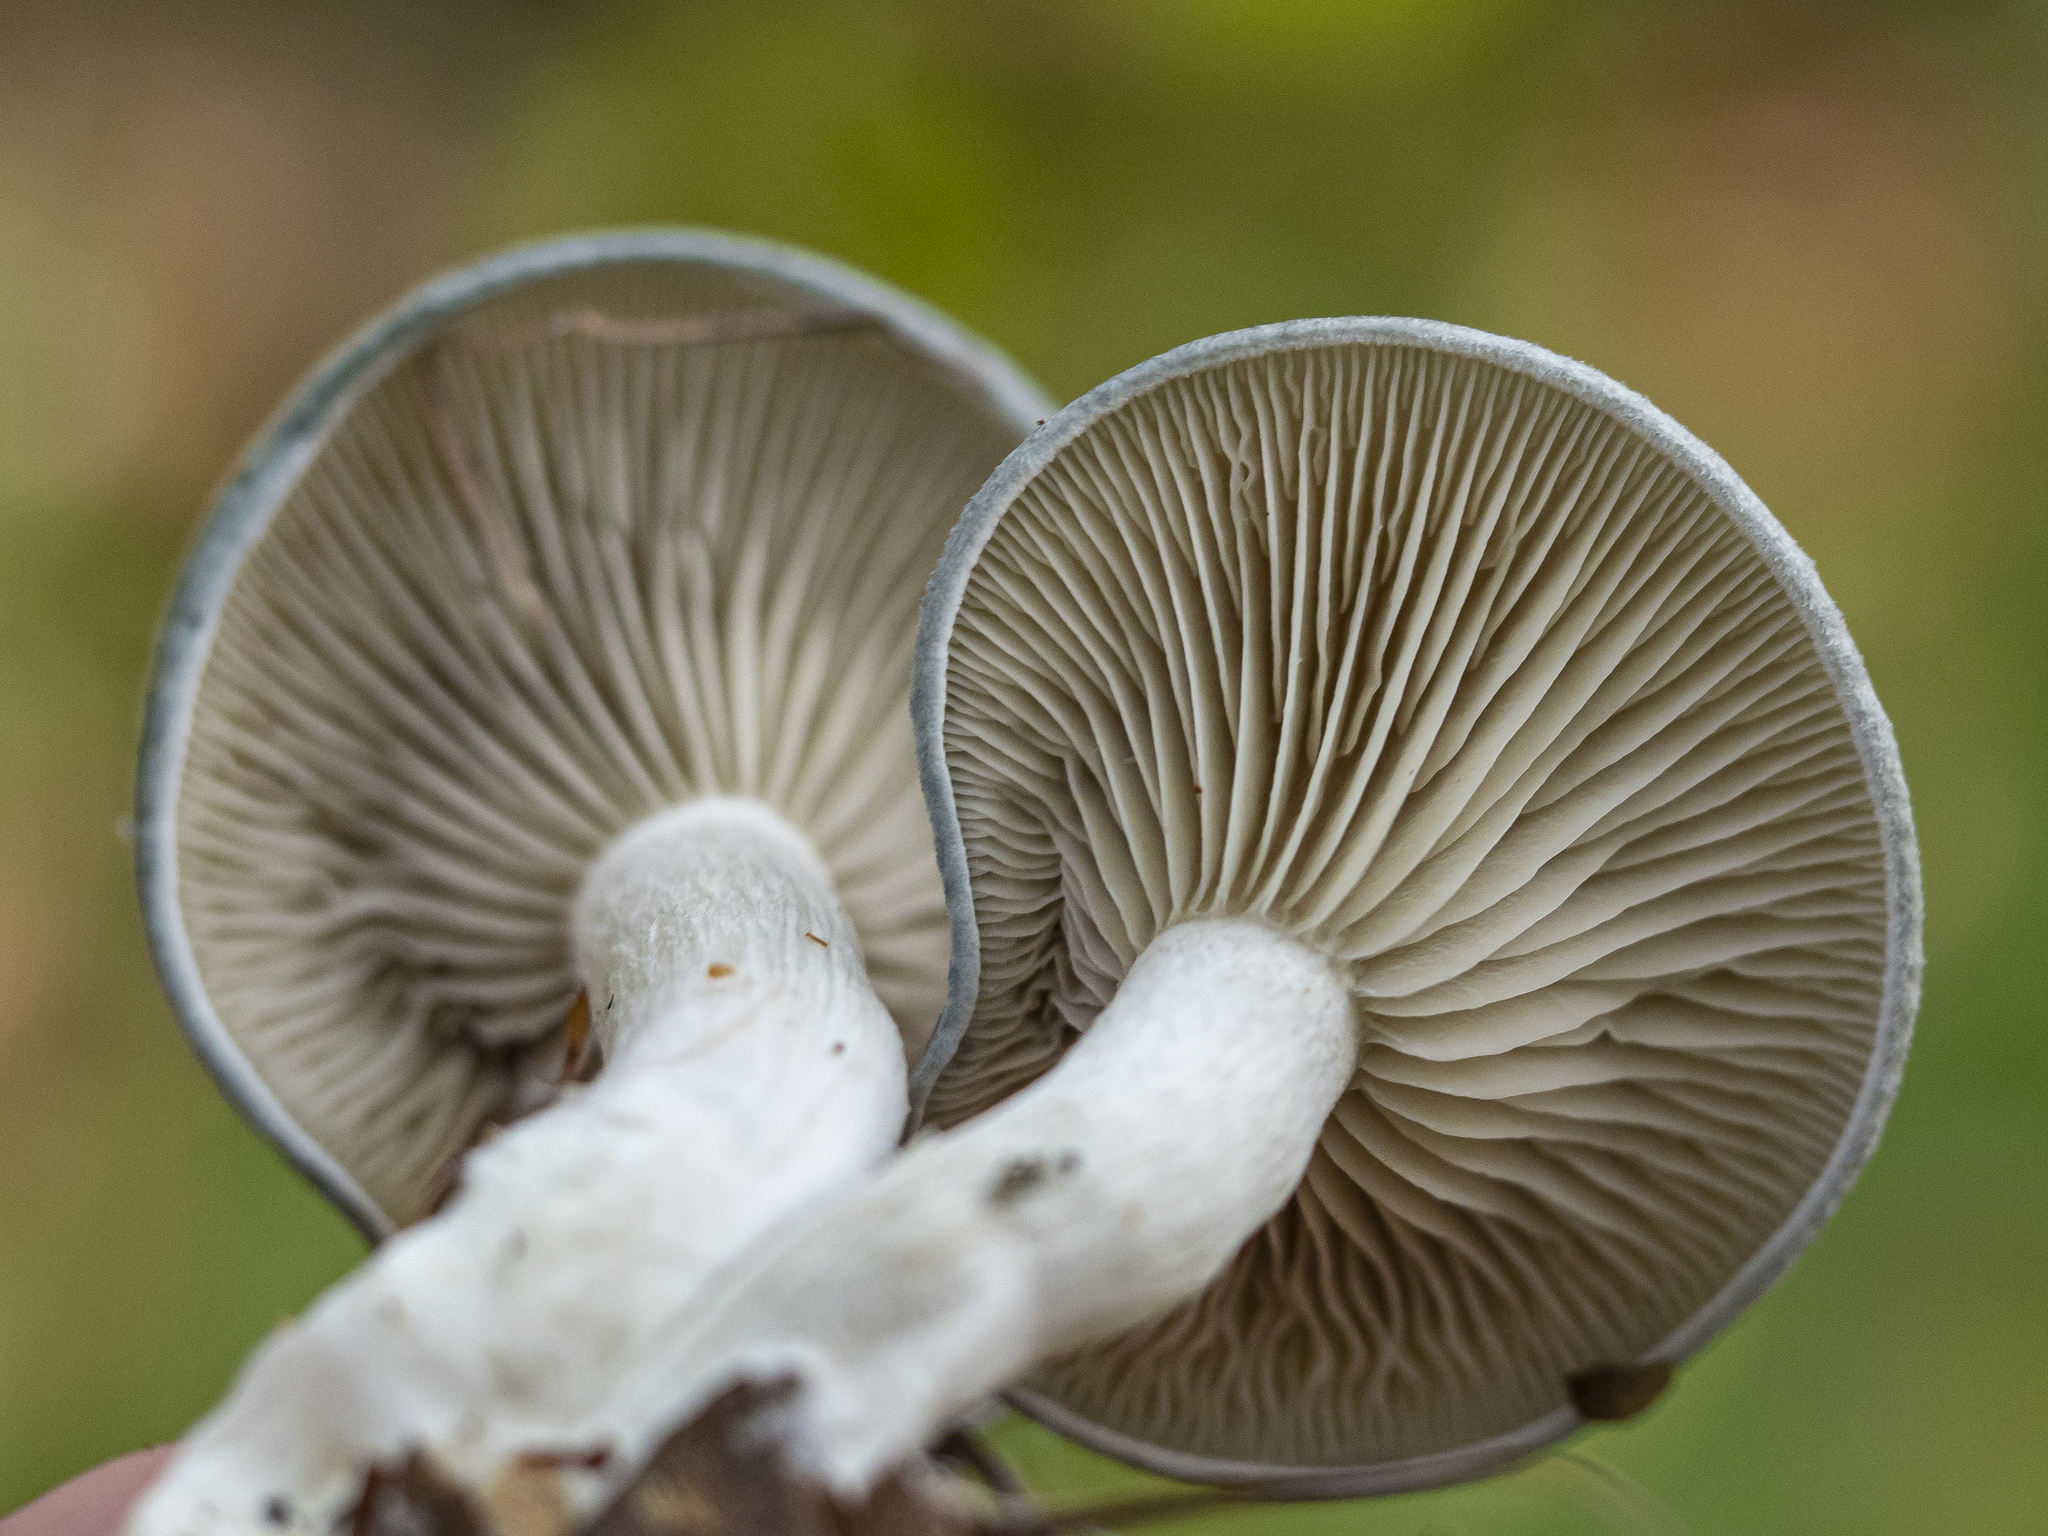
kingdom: Fungi
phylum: Basidiomycota
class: Agaricomycetes
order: Agaricales
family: Tricholomataceae
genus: Collybia
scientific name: Collybia
